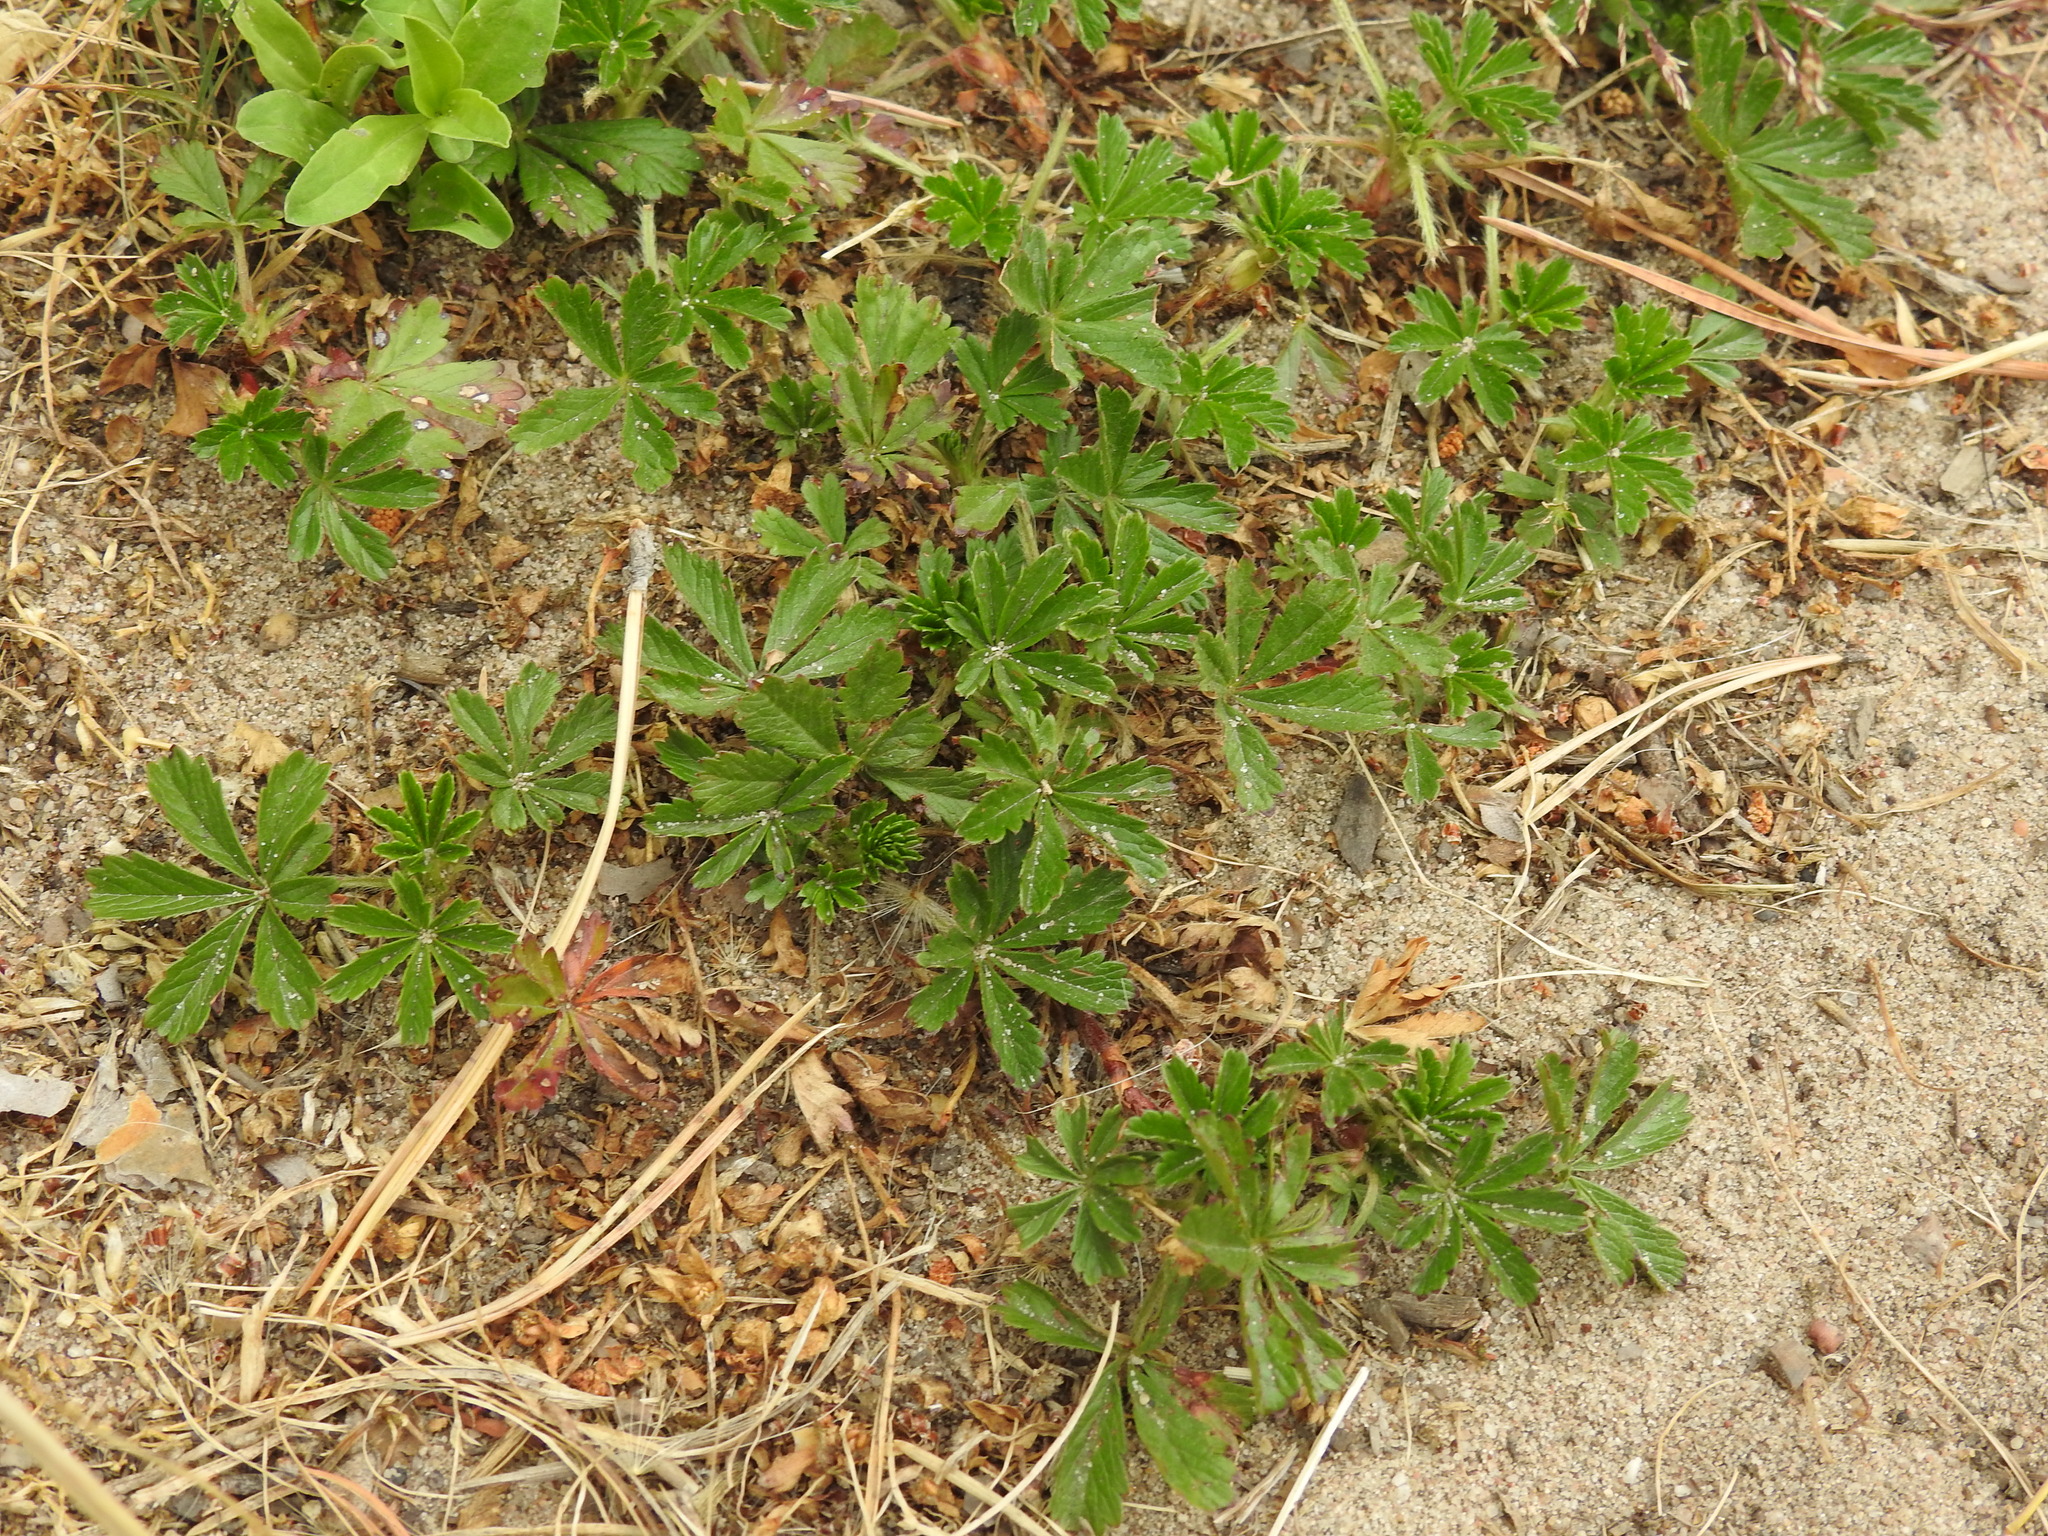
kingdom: Plantae
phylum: Tracheophyta
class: Magnoliopsida
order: Rosales
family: Rosaceae
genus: Potentilla
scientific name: Potentilla reptans
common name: Creeping cinquefoil
